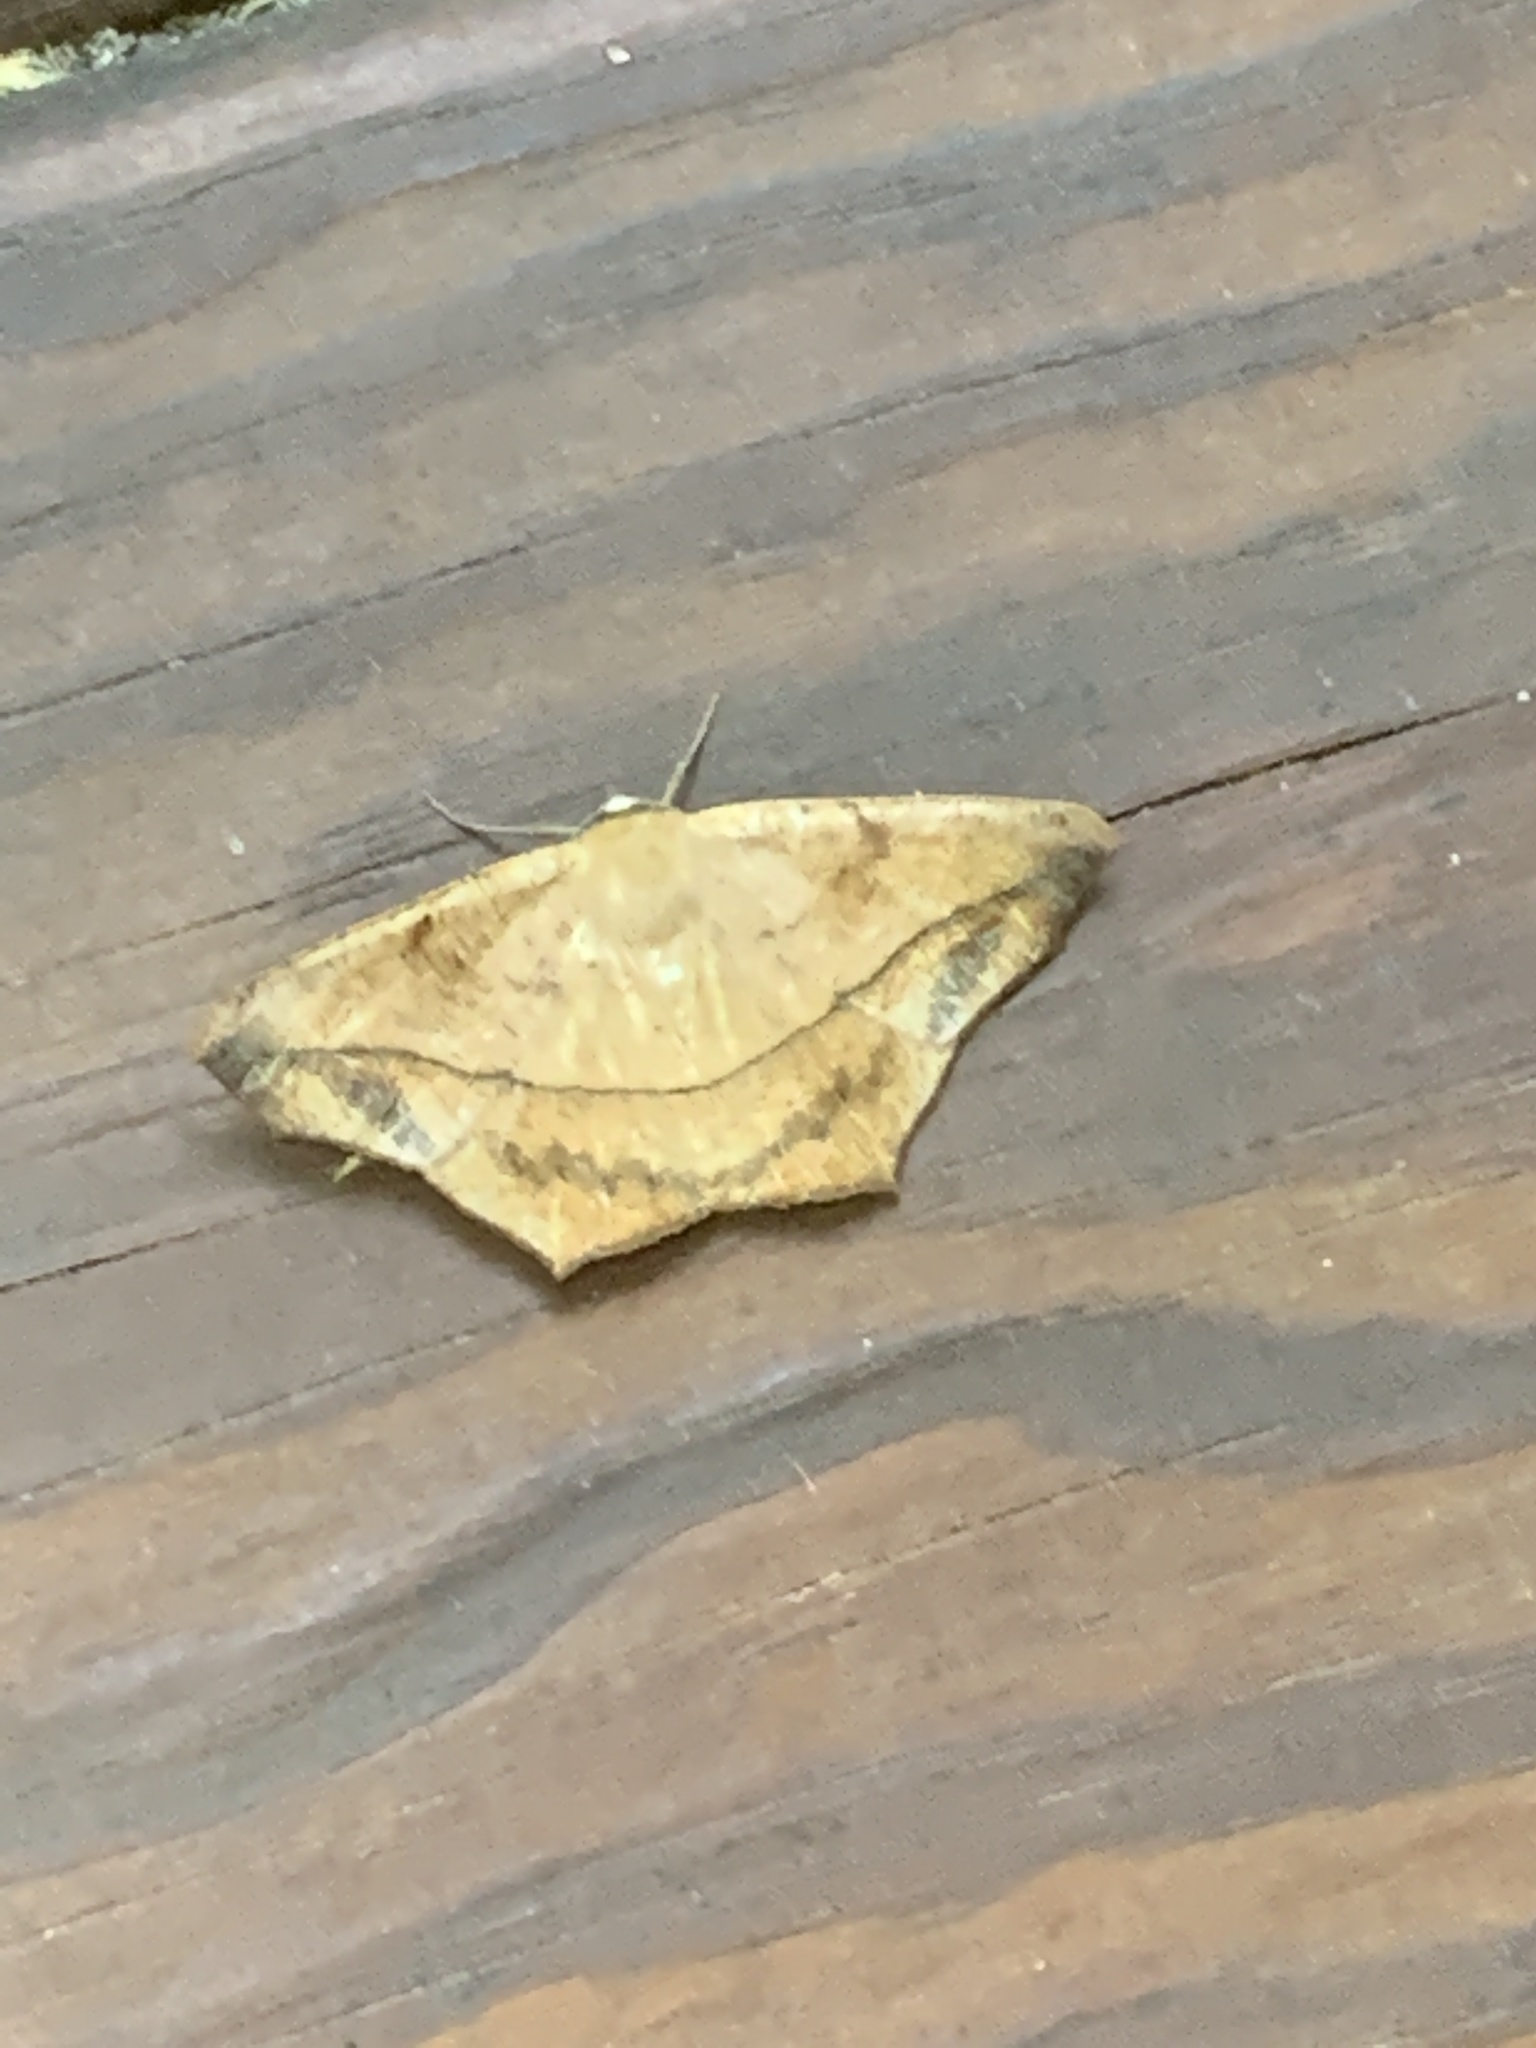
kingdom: Animalia
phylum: Arthropoda
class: Insecta
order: Lepidoptera
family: Geometridae
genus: Prochoerodes
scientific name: Prochoerodes lineola
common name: Large maple spanworm
